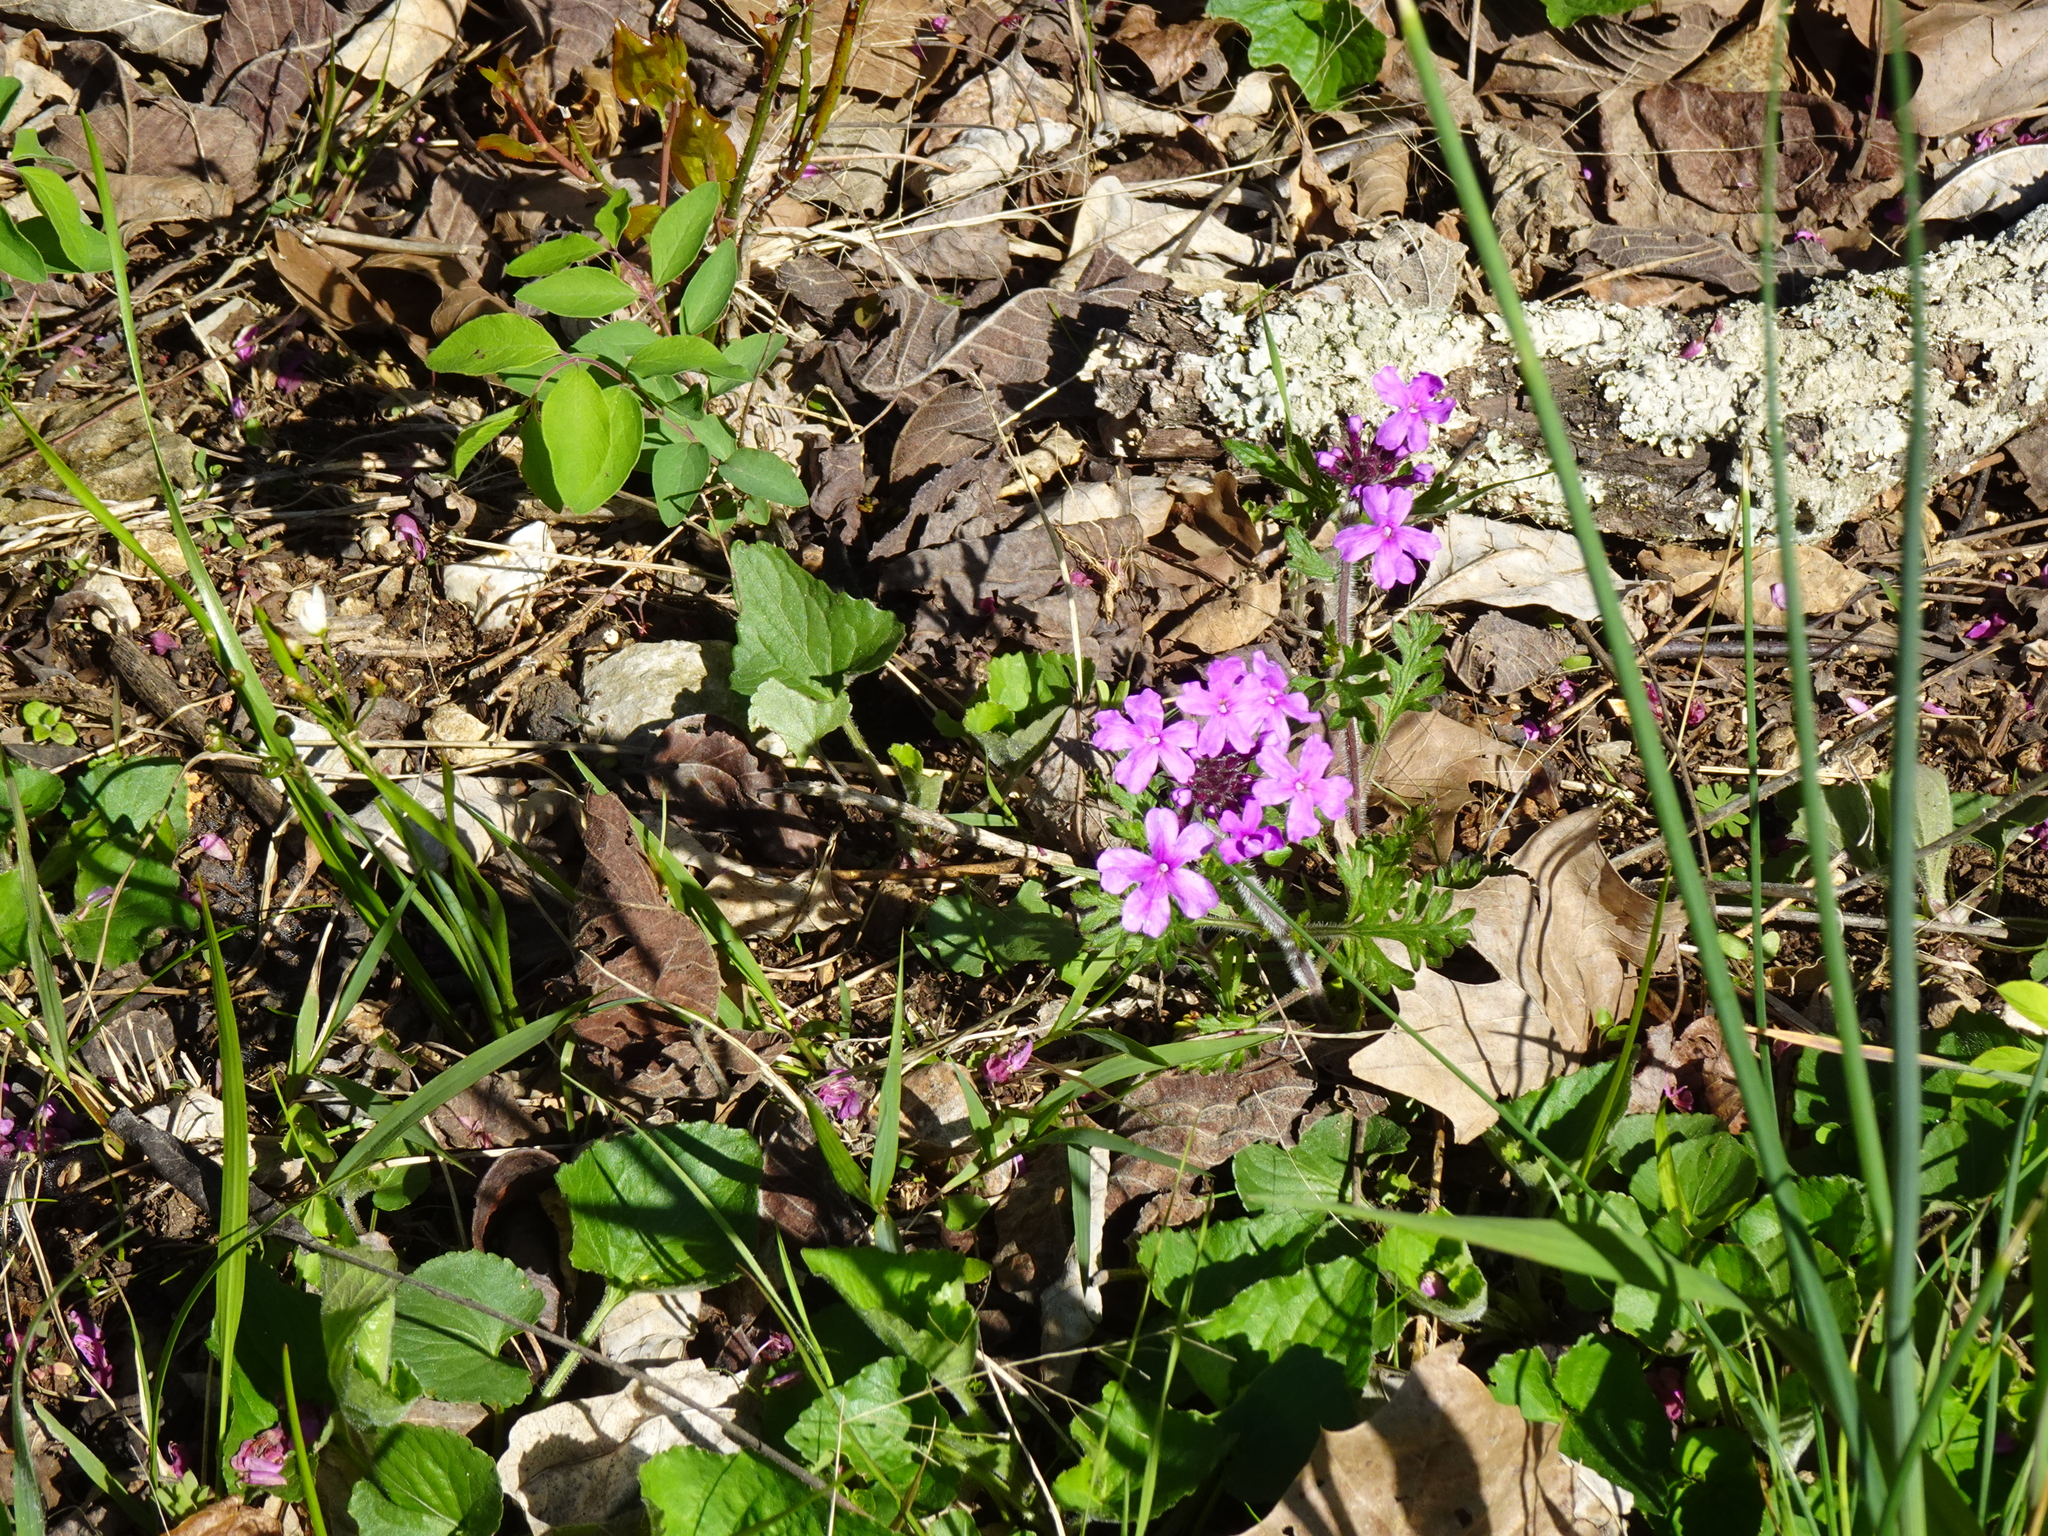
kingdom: Plantae
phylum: Tracheophyta
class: Magnoliopsida
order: Lamiales
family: Verbenaceae
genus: Verbena
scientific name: Verbena canadensis
